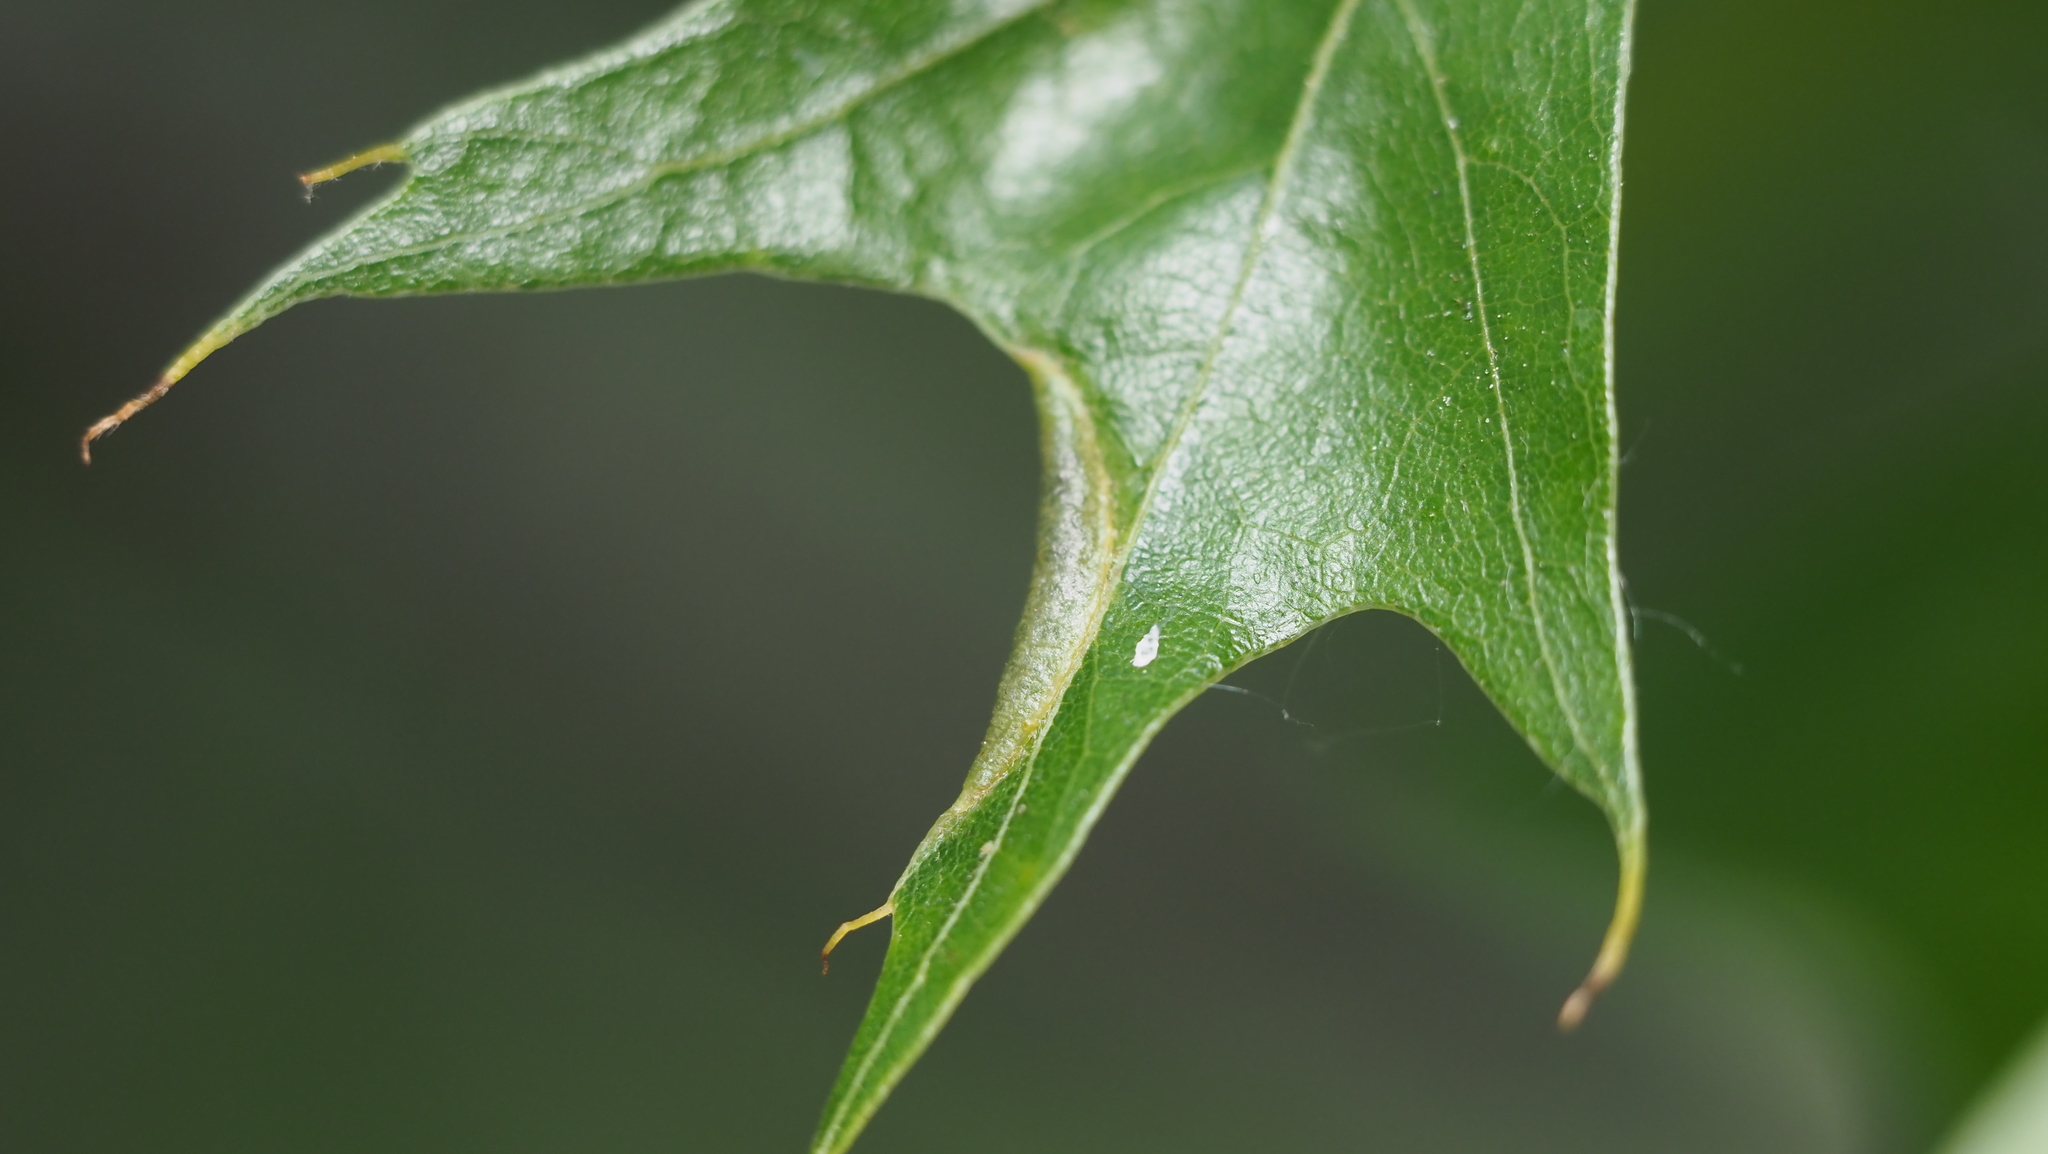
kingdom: Animalia
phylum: Arthropoda
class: Insecta
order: Diptera
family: Cecidomyiidae
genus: Macrodiplosis
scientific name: Macrodiplosis erubescens
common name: Marginal leaf fold gall midge
